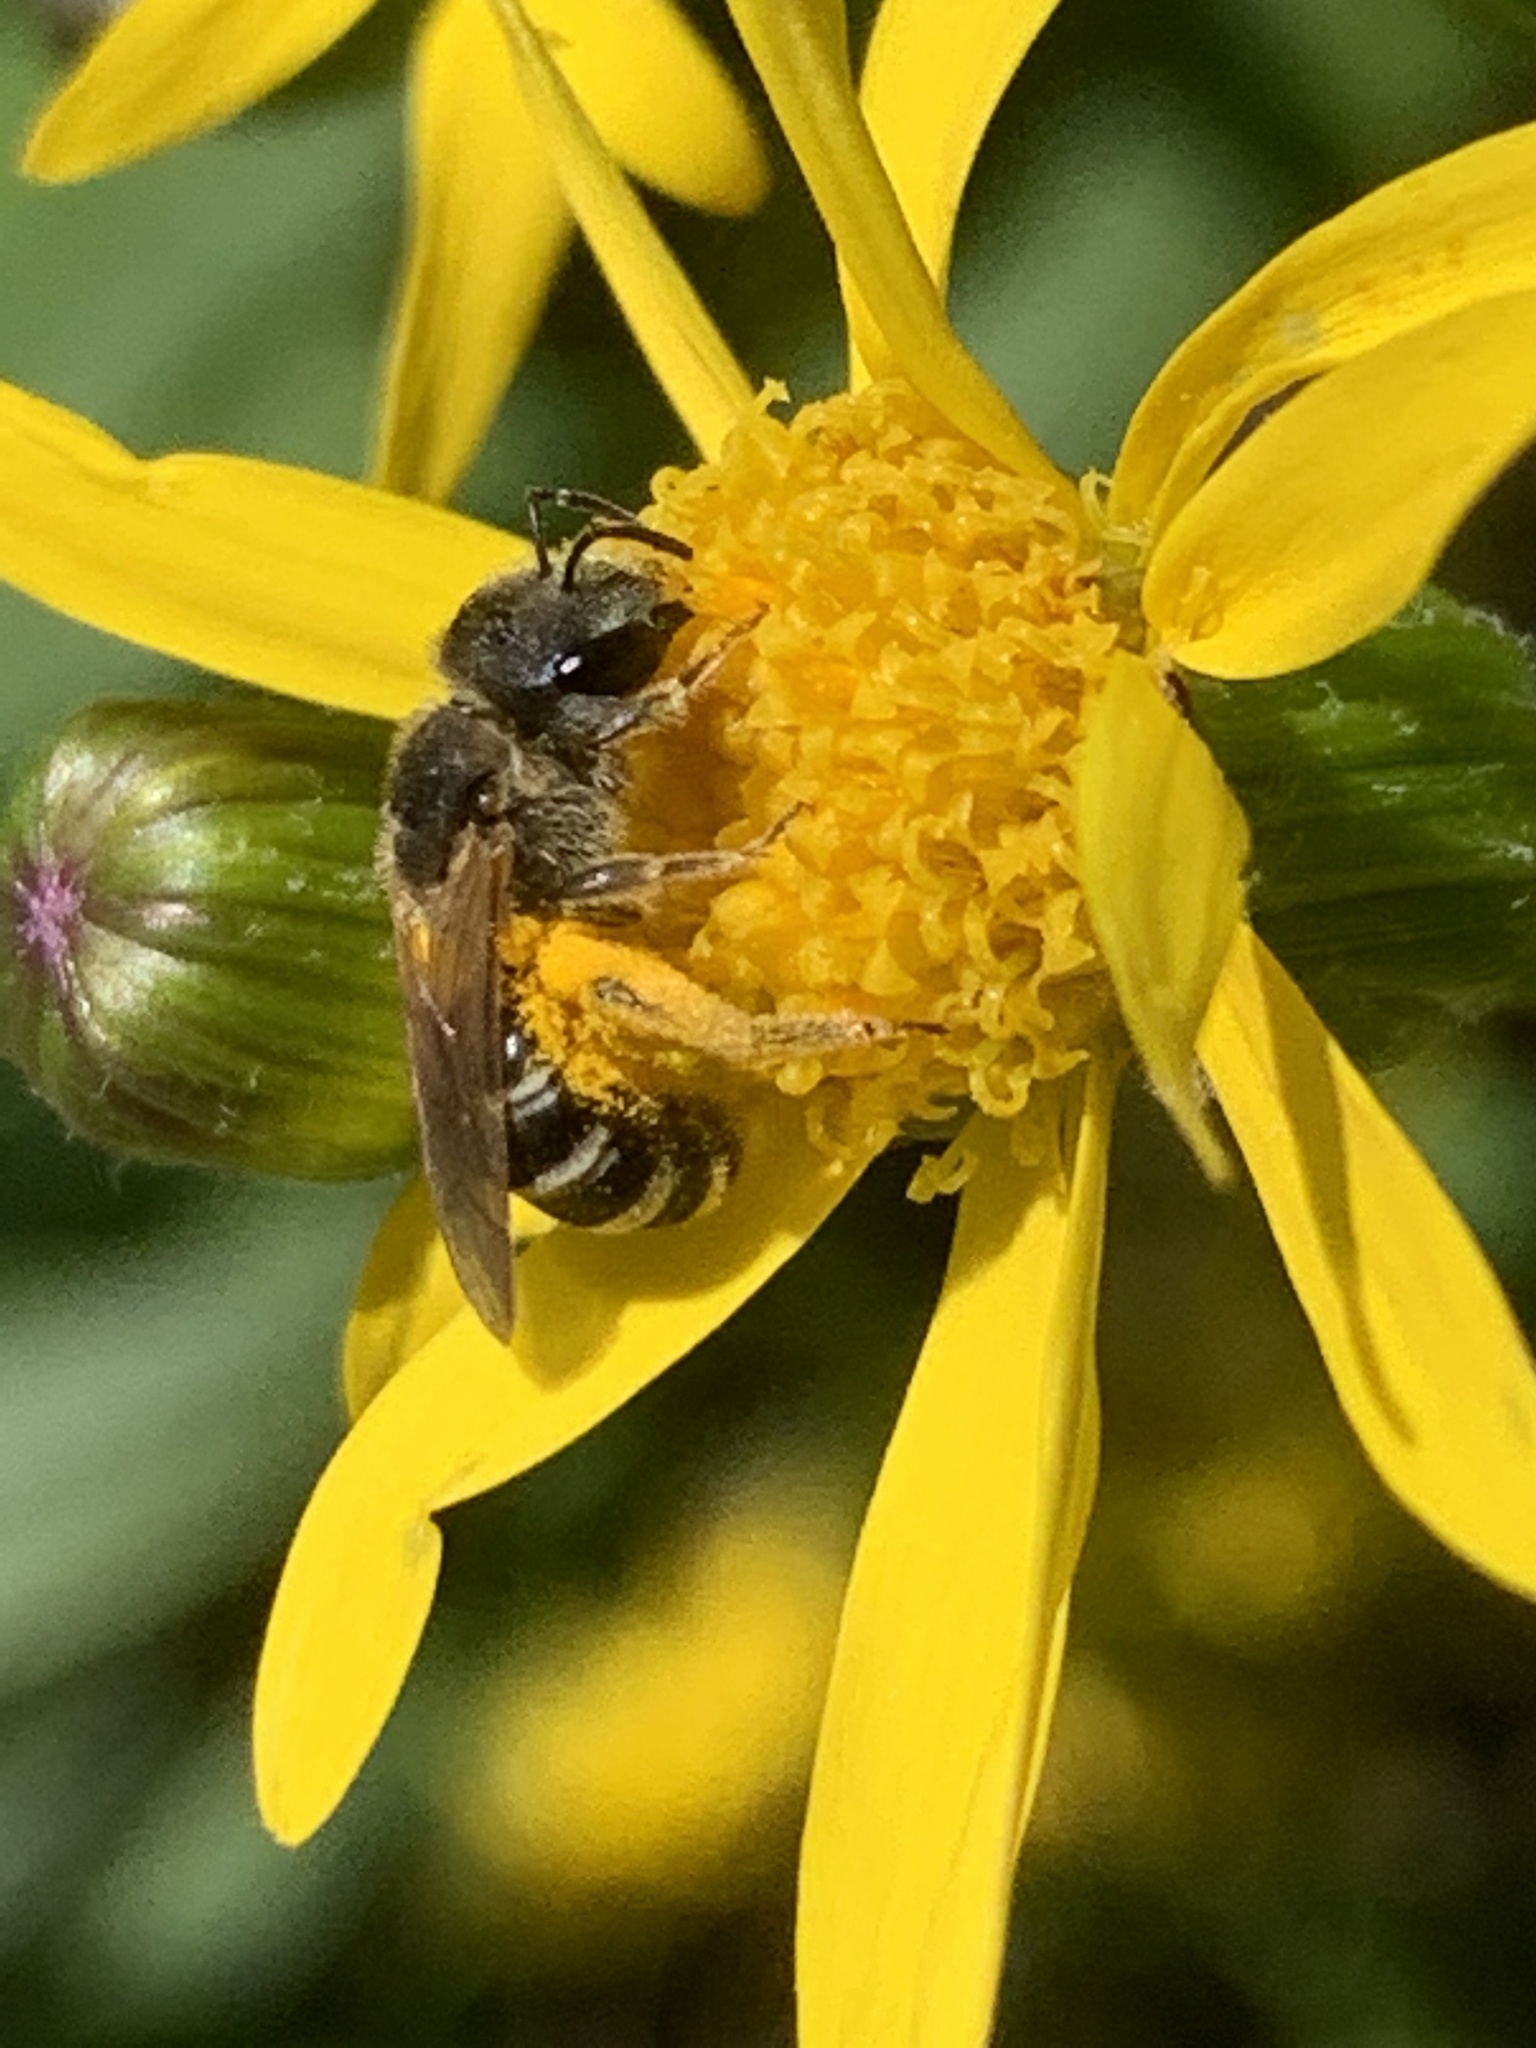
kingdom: Animalia
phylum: Arthropoda
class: Insecta
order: Hymenoptera
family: Halictidae
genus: Halictus
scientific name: Halictus ligatus
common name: Ligated furrow bee
